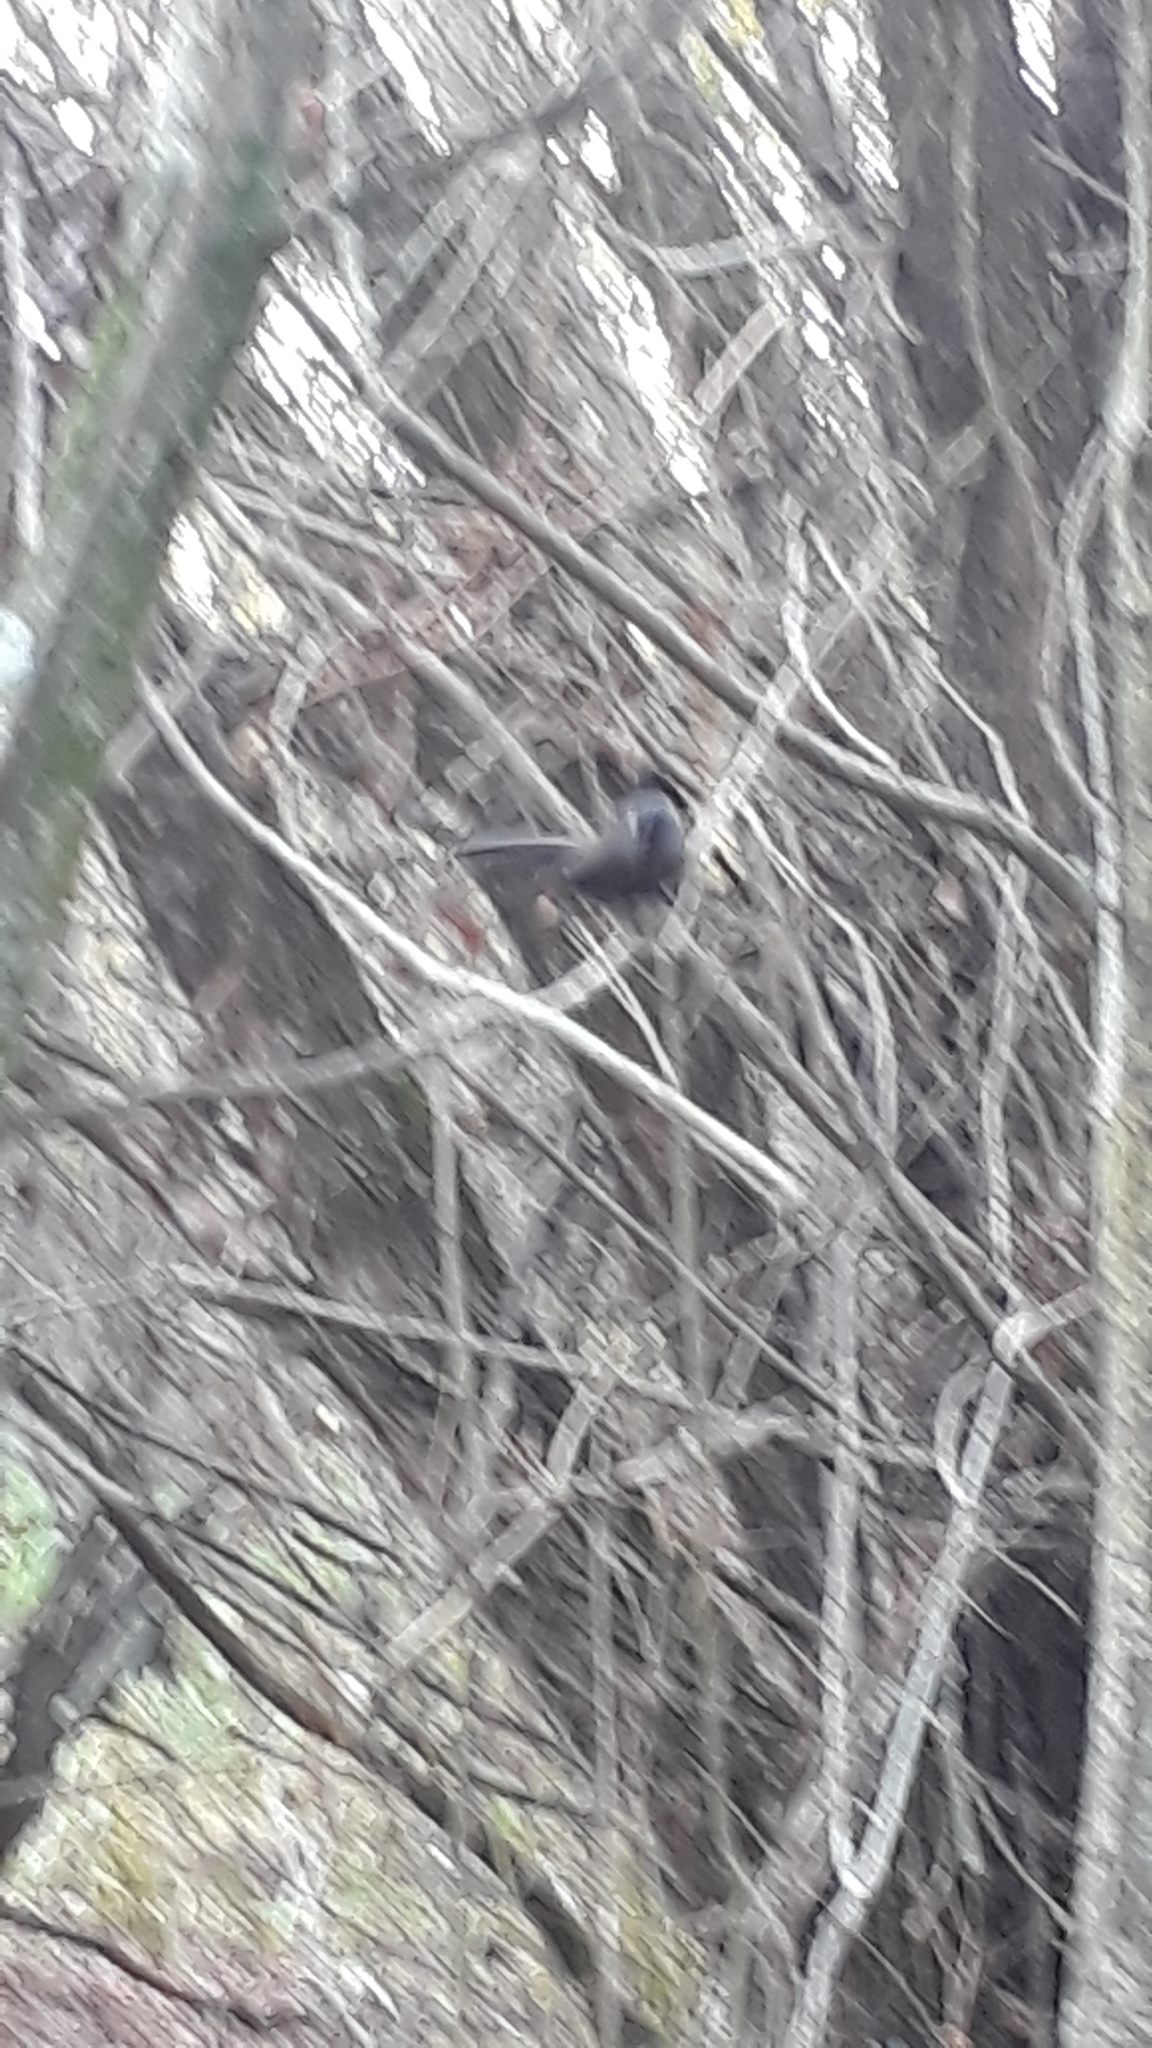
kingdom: Animalia
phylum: Chordata
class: Aves
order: Passeriformes
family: Rhipiduridae
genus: Rhipidura
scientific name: Rhipidura fuliginosa
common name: New zealand fantail
